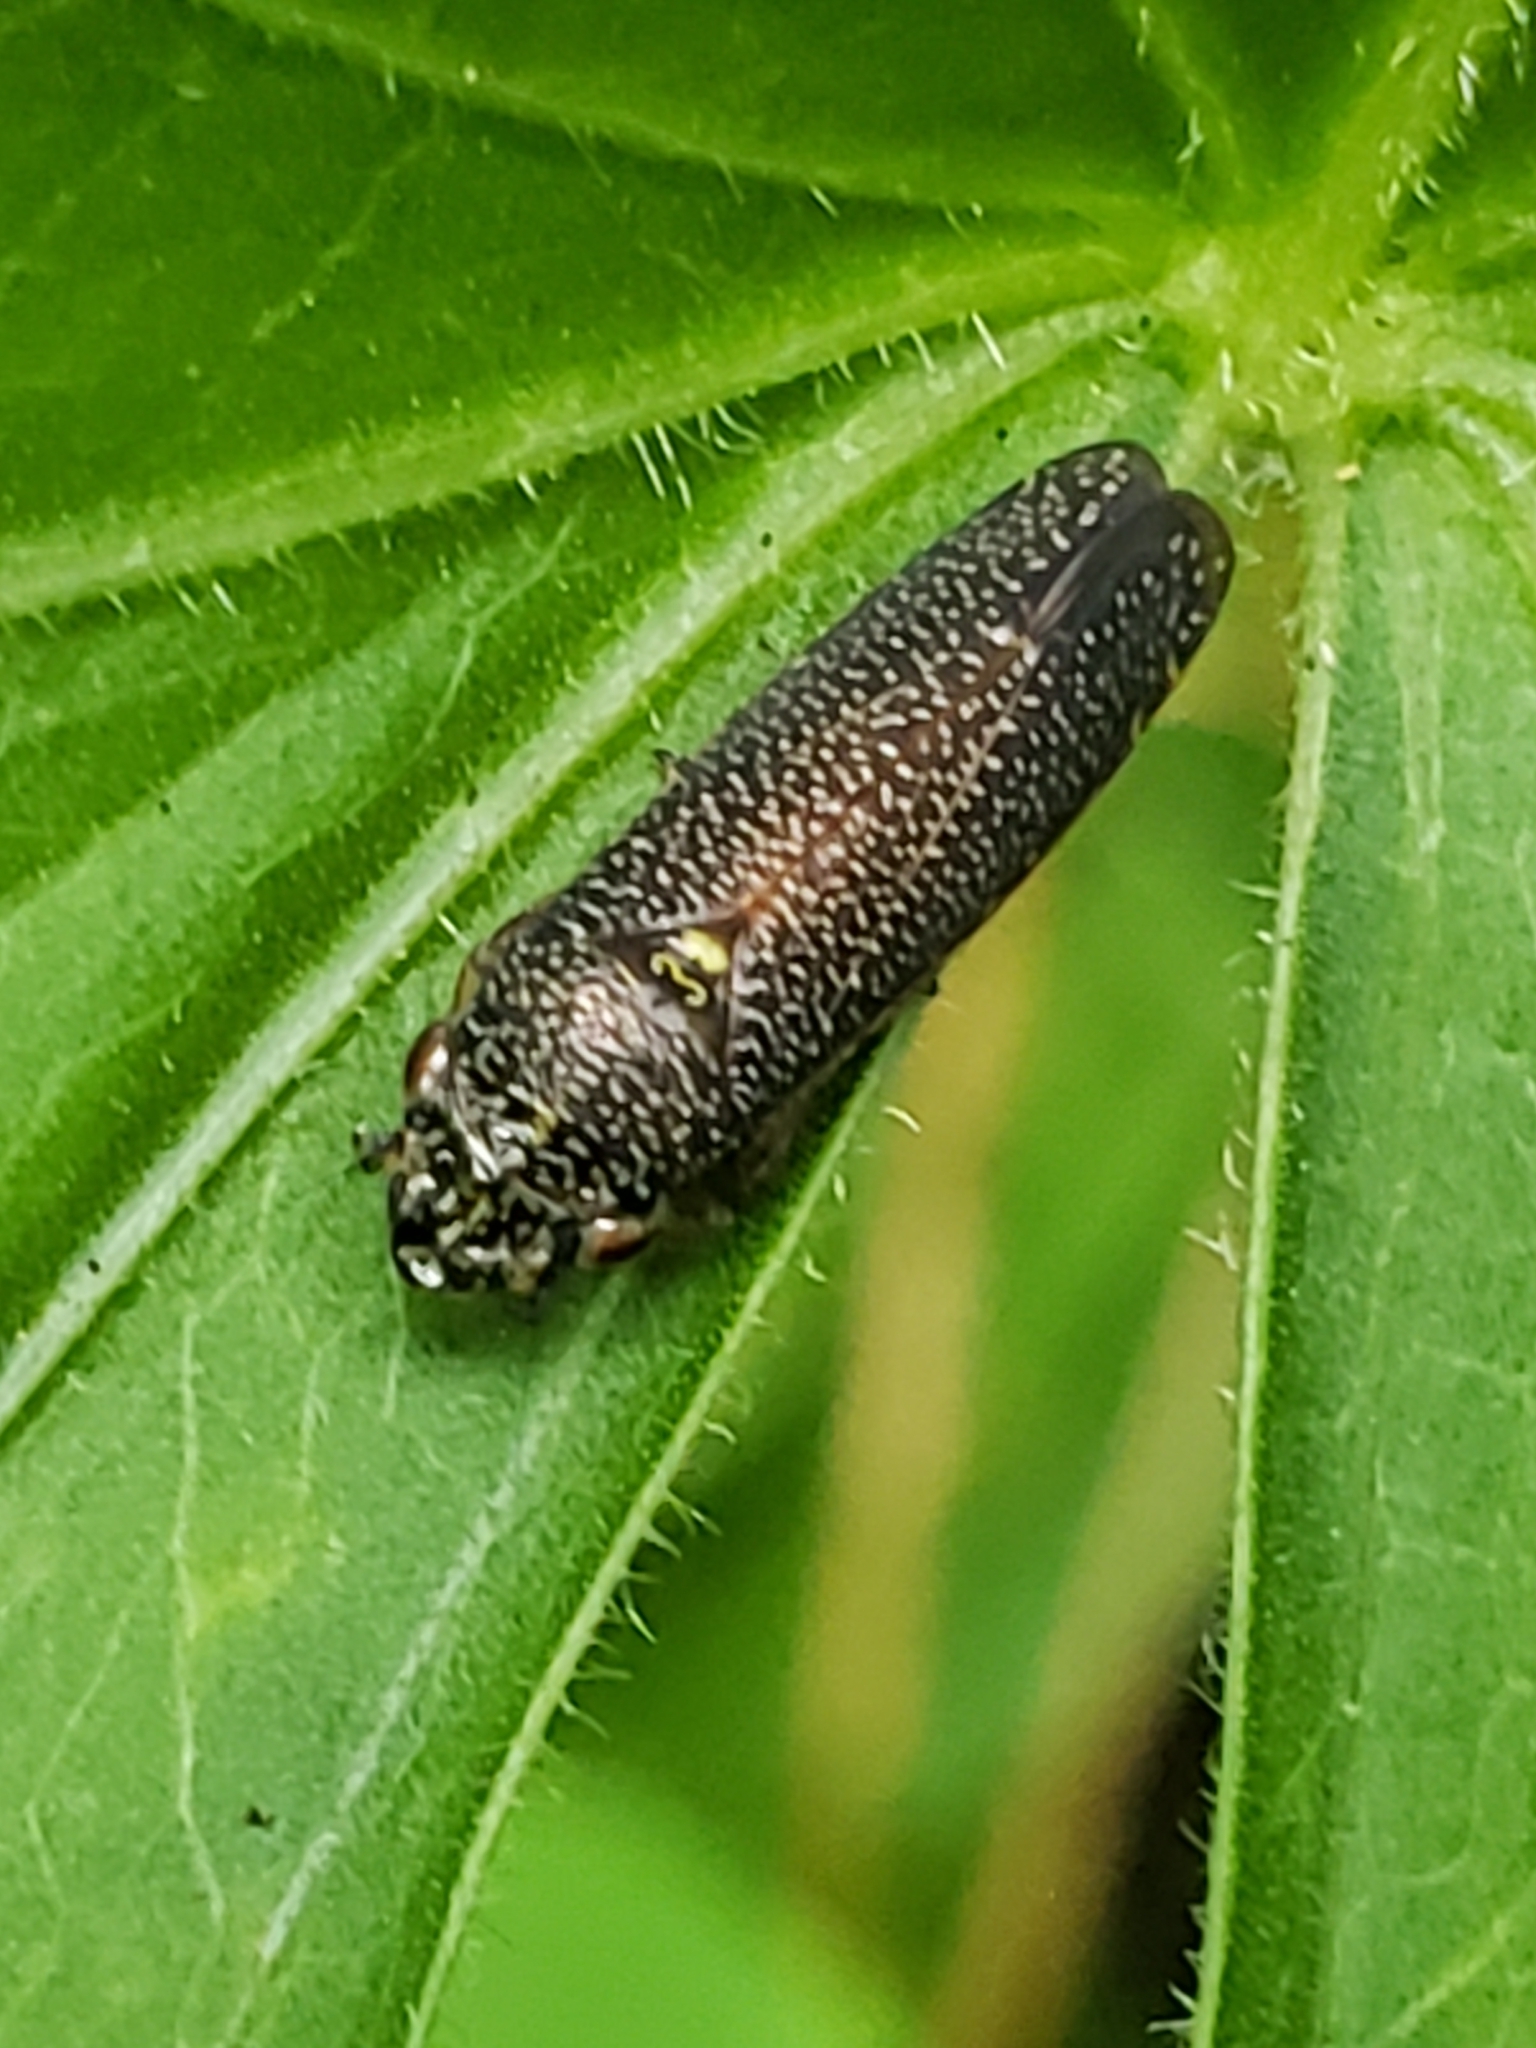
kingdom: Animalia
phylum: Arthropoda
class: Insecta
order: Hemiptera
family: Cicadellidae
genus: Paraulacizes
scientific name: Paraulacizes irrorata
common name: Speckled sharpshooter
